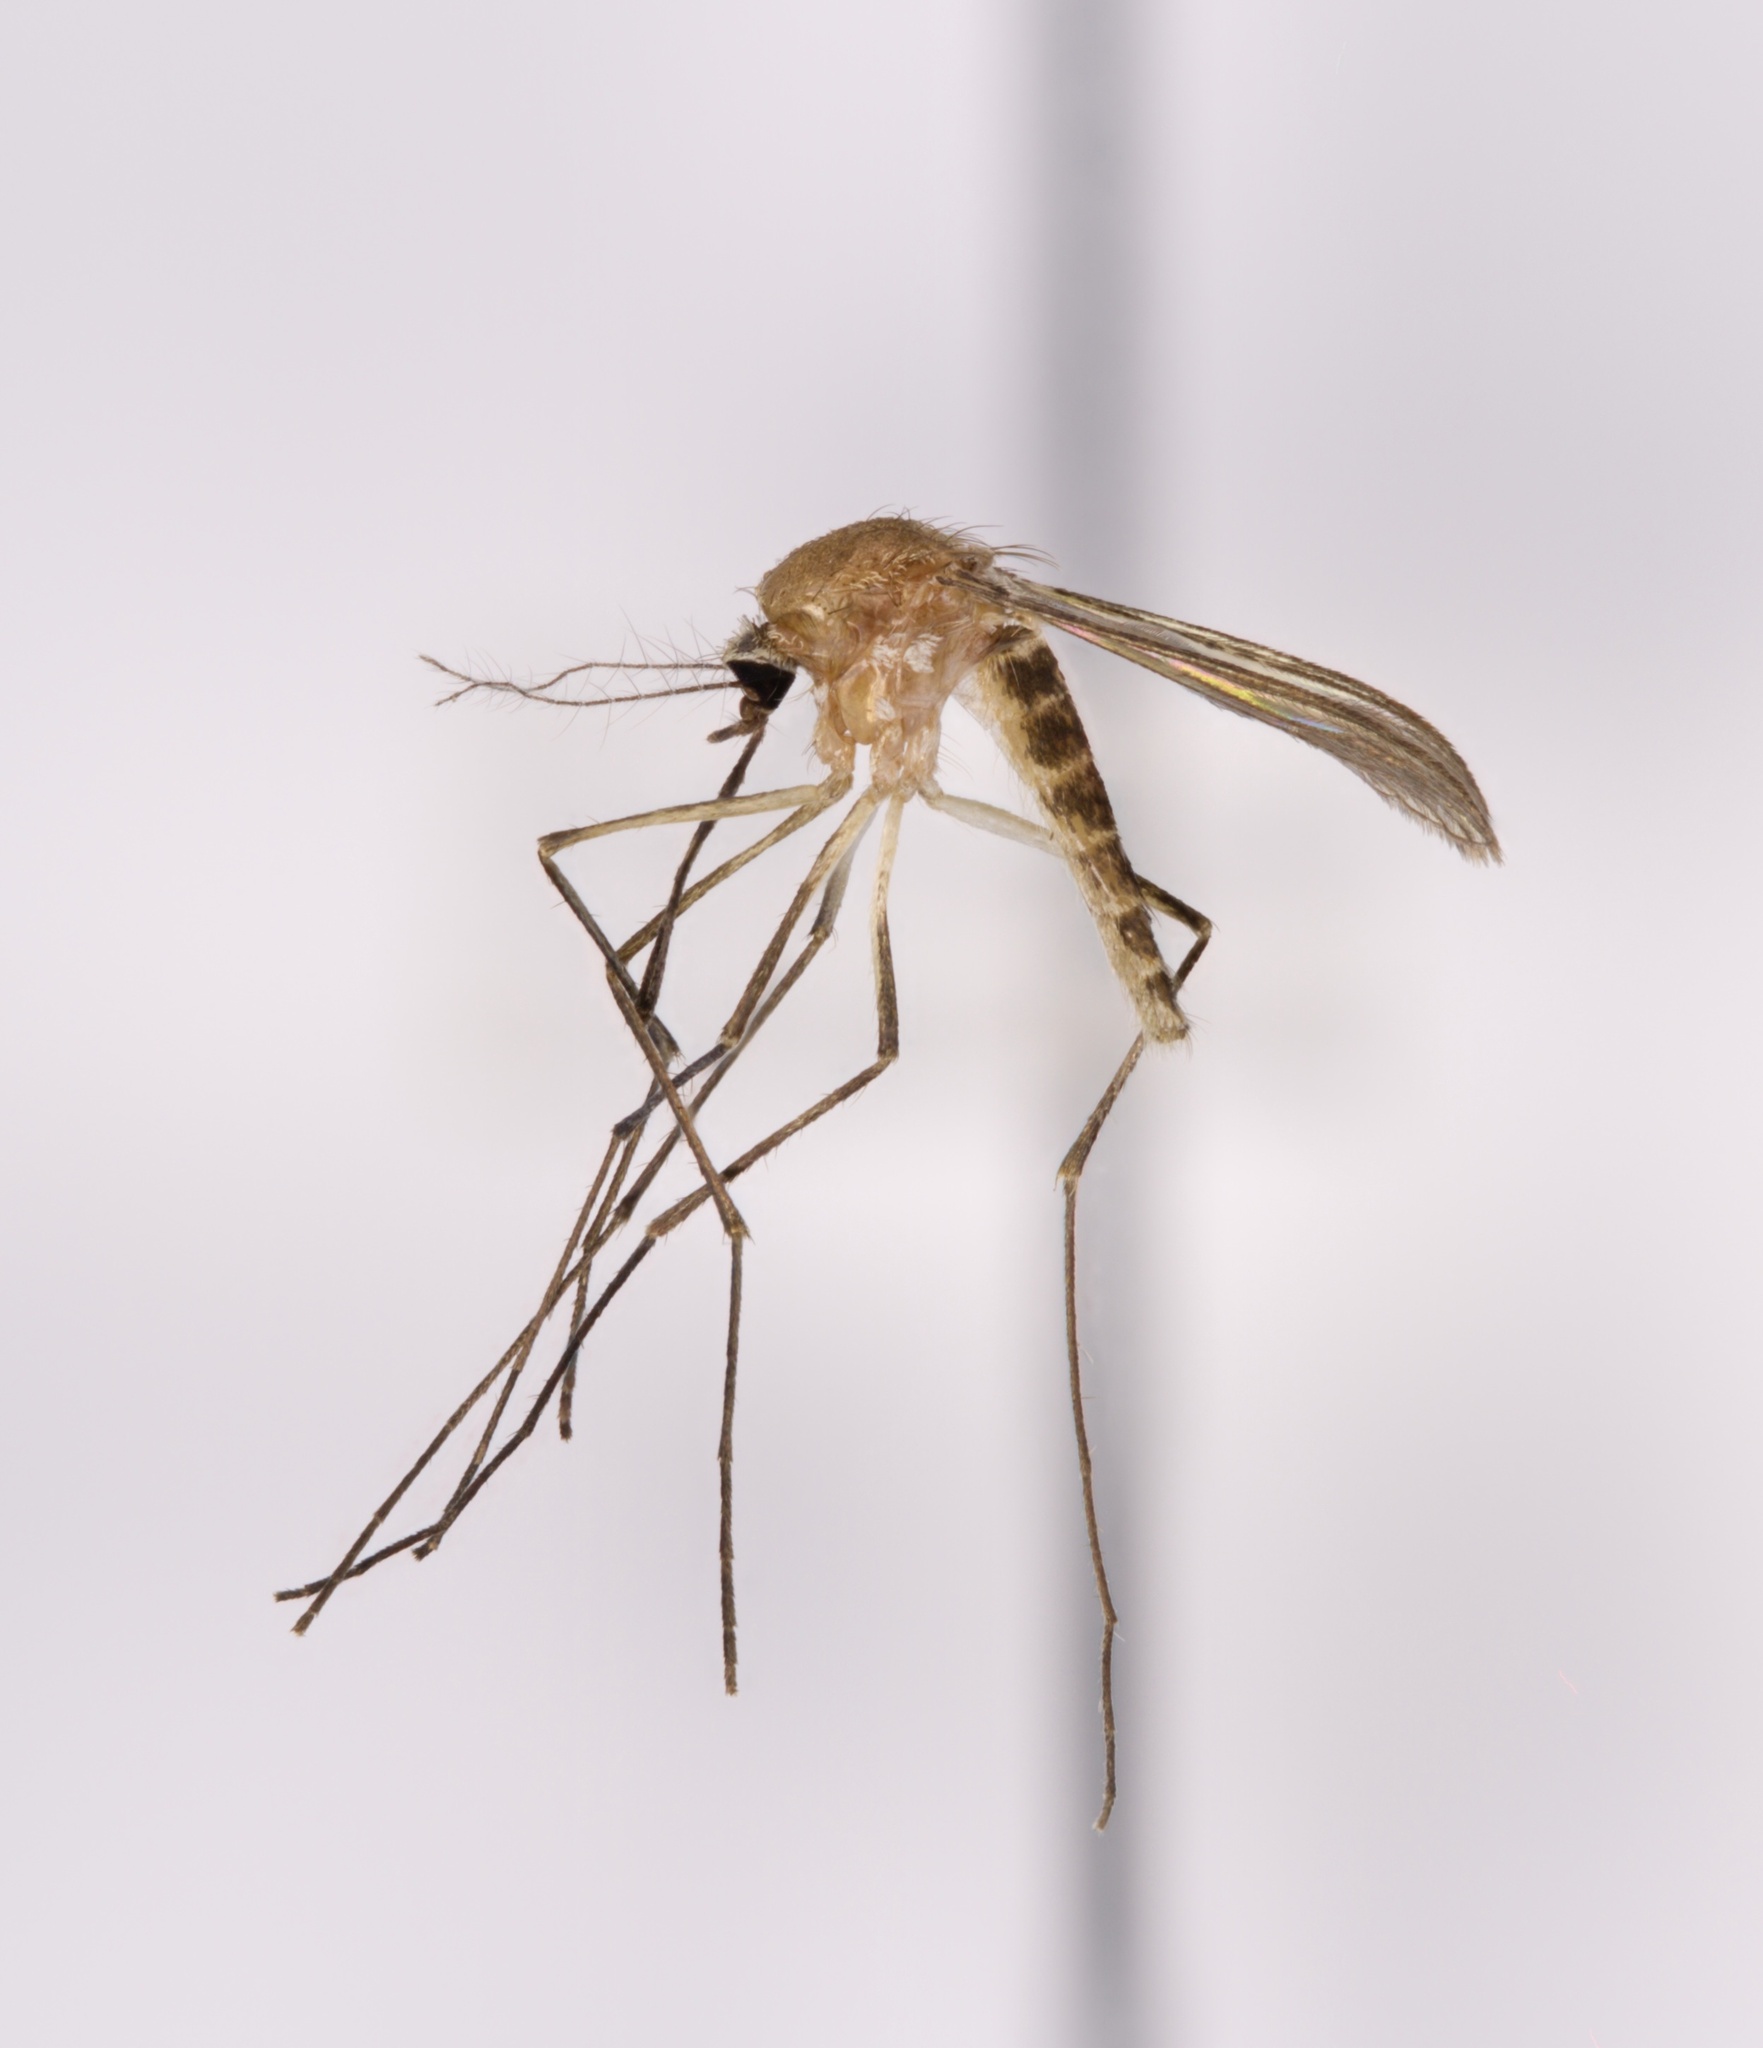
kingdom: Animalia
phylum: Arthropoda
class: Insecta
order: Diptera
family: Culicidae
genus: Culex
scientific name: Culex territans
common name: Northern frog-biting mosquito
